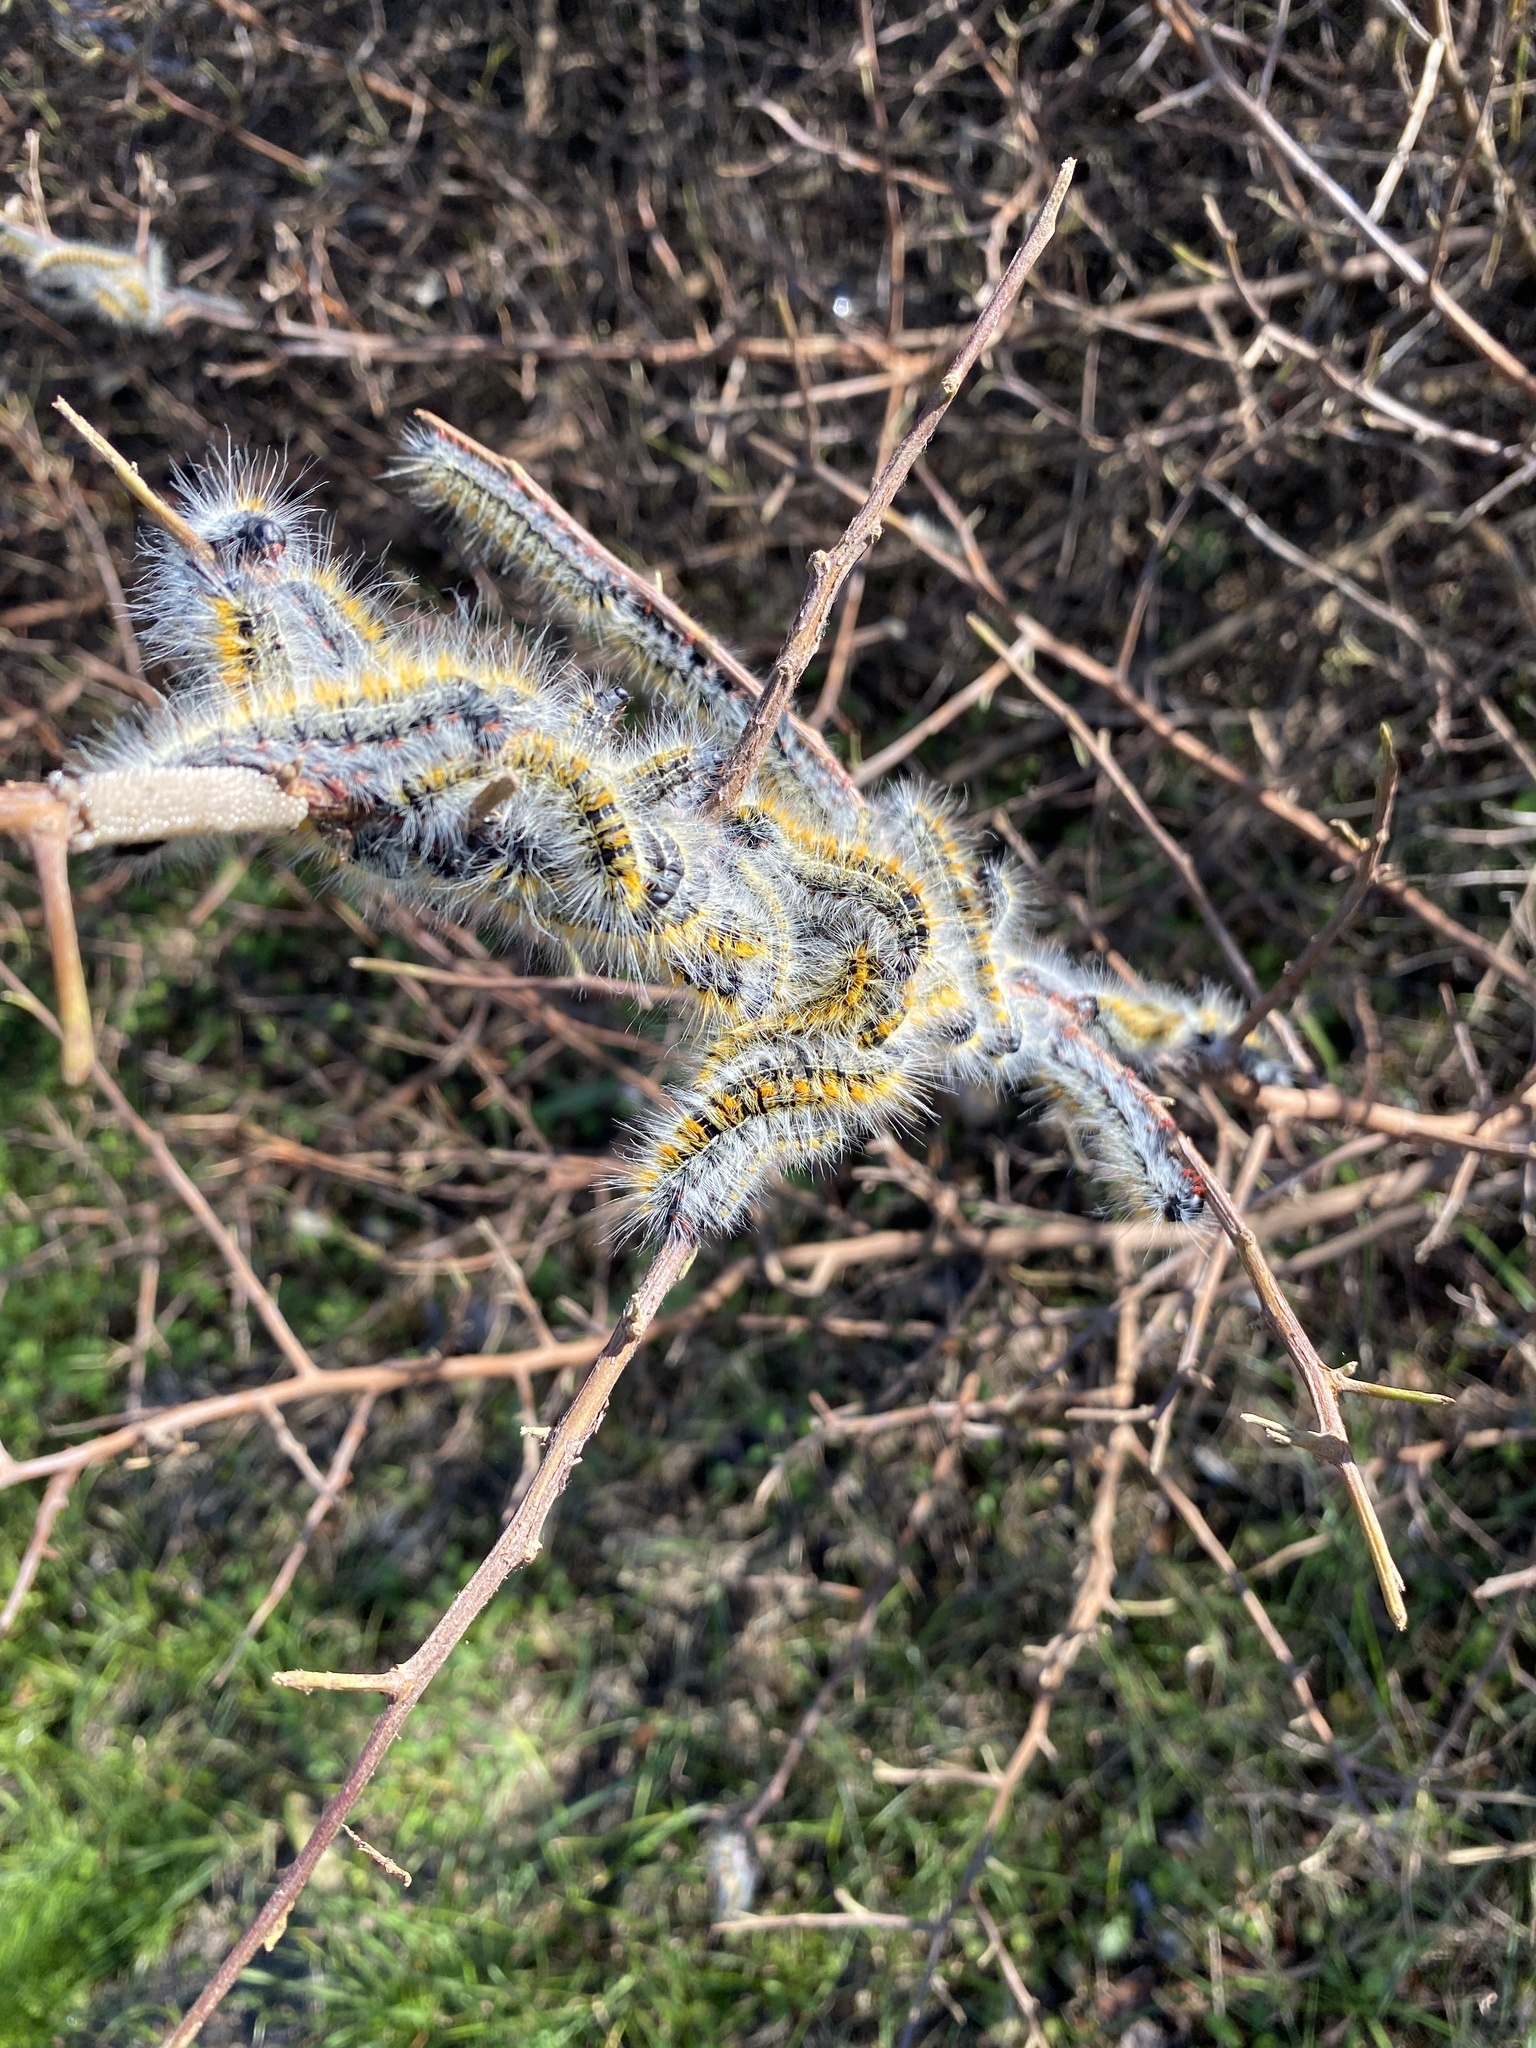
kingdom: Animalia
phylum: Arthropoda
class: Insecta
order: Lepidoptera
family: Lasiocampidae
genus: Bombycomorpha
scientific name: Bombycomorpha bifascia
